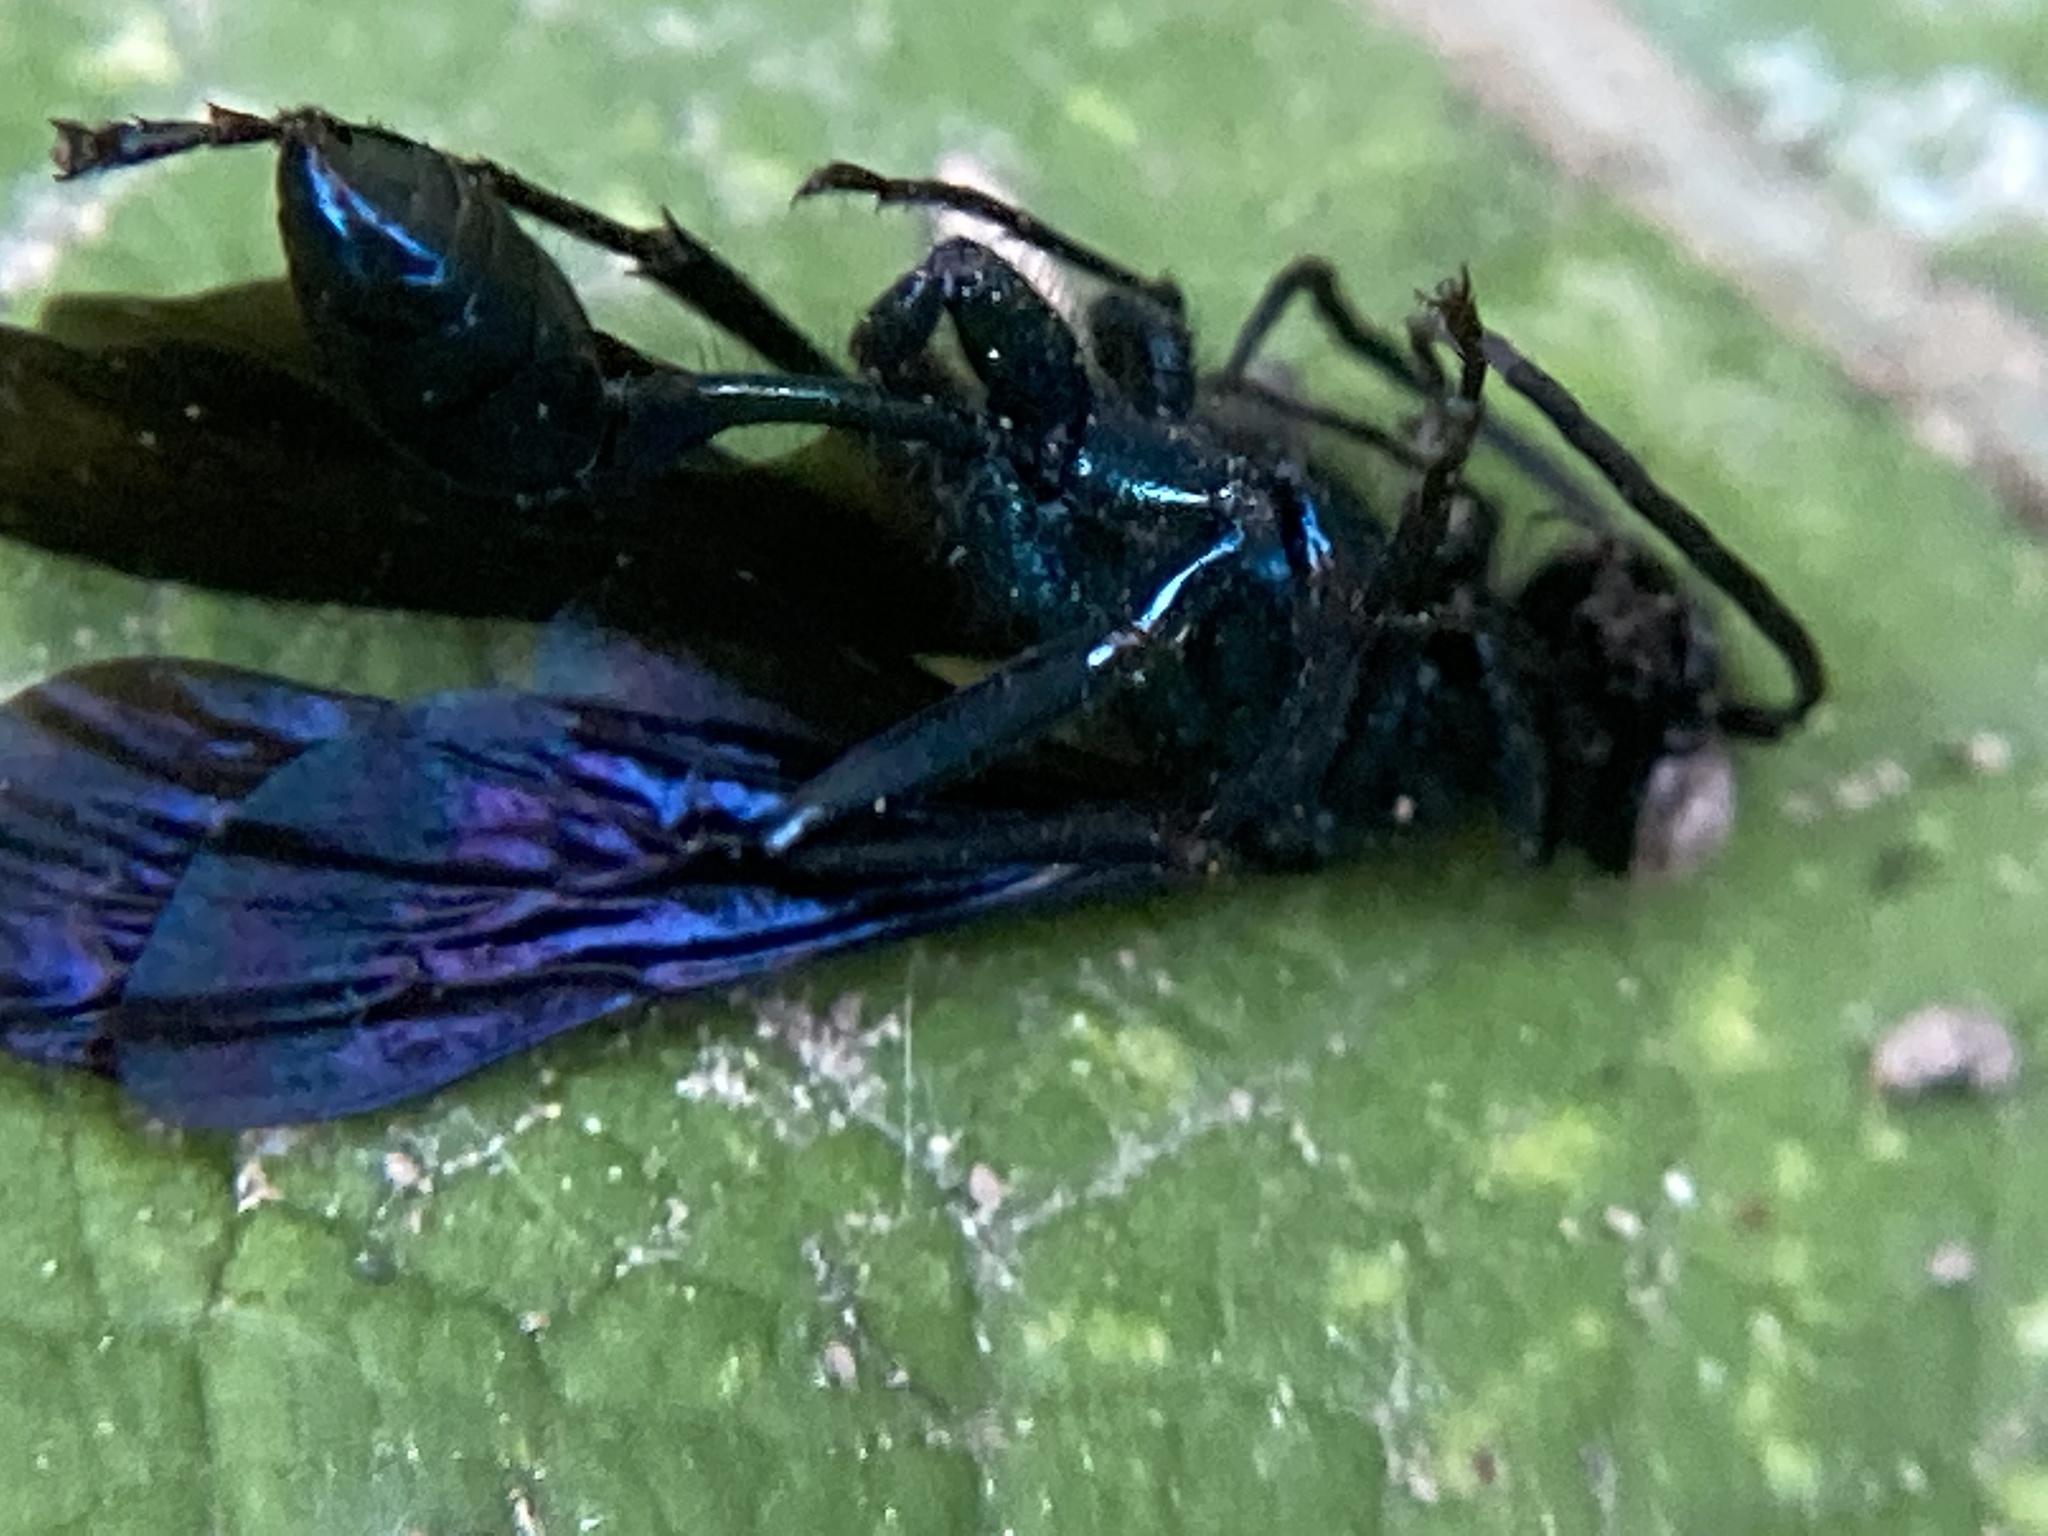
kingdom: Animalia
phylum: Arthropoda
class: Insecta
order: Hymenoptera
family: Sphecidae
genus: Chalybion
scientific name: Chalybion californicum
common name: Mud dauber
